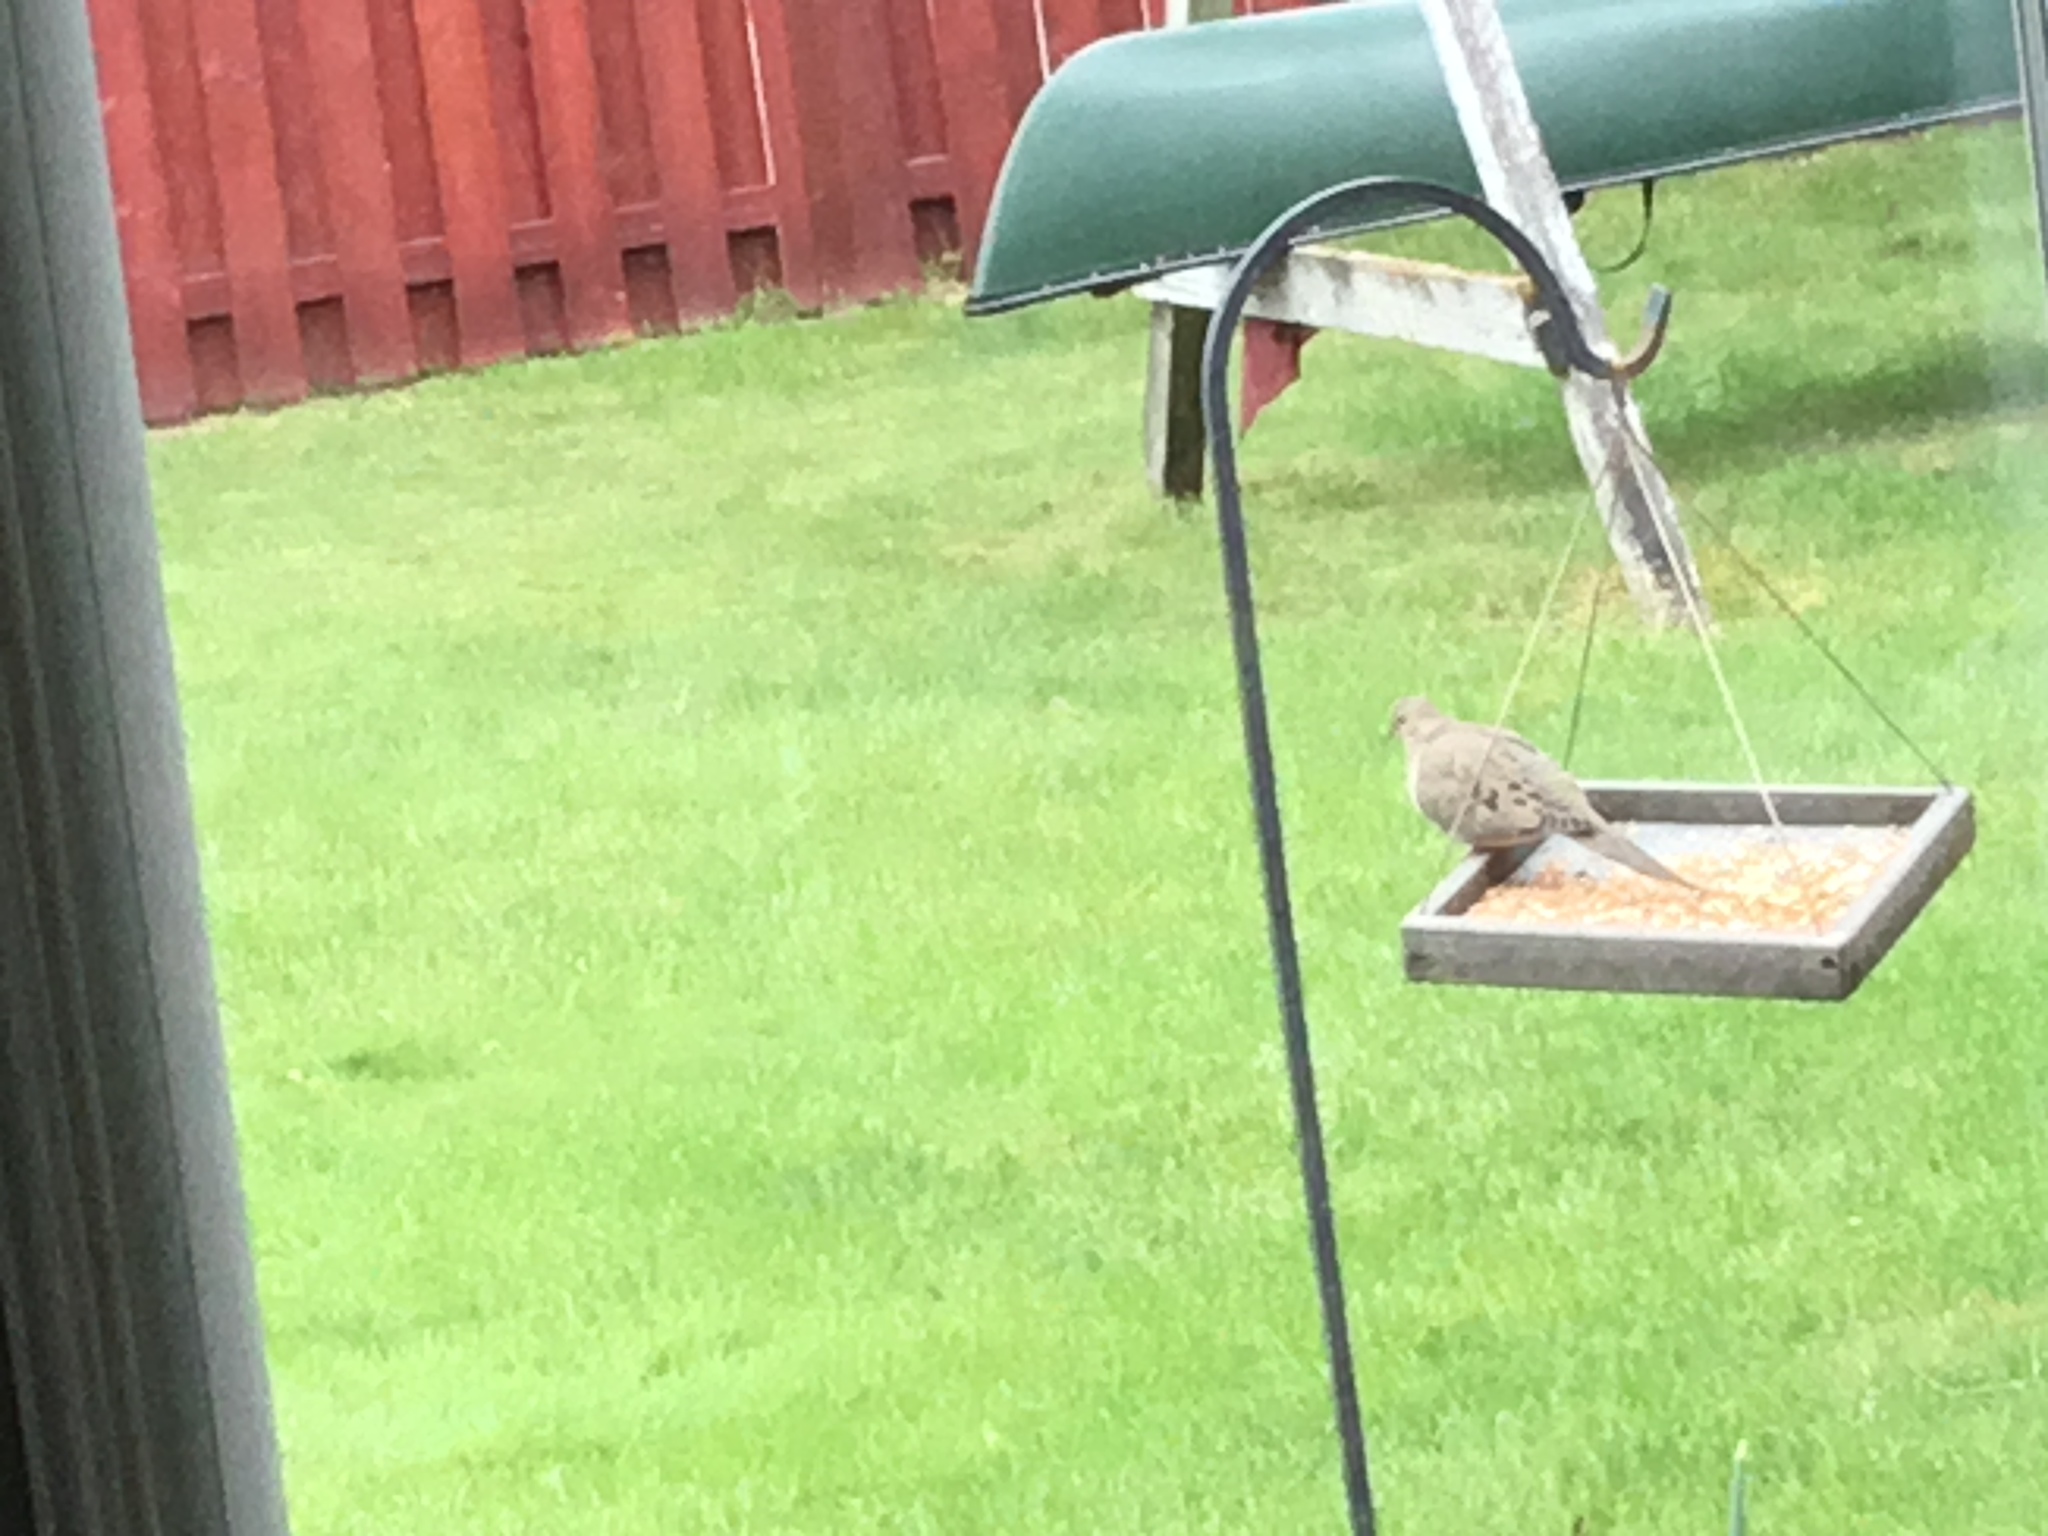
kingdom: Animalia
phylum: Chordata
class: Aves
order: Columbiformes
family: Columbidae
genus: Zenaida
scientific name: Zenaida macroura
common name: Mourning dove
